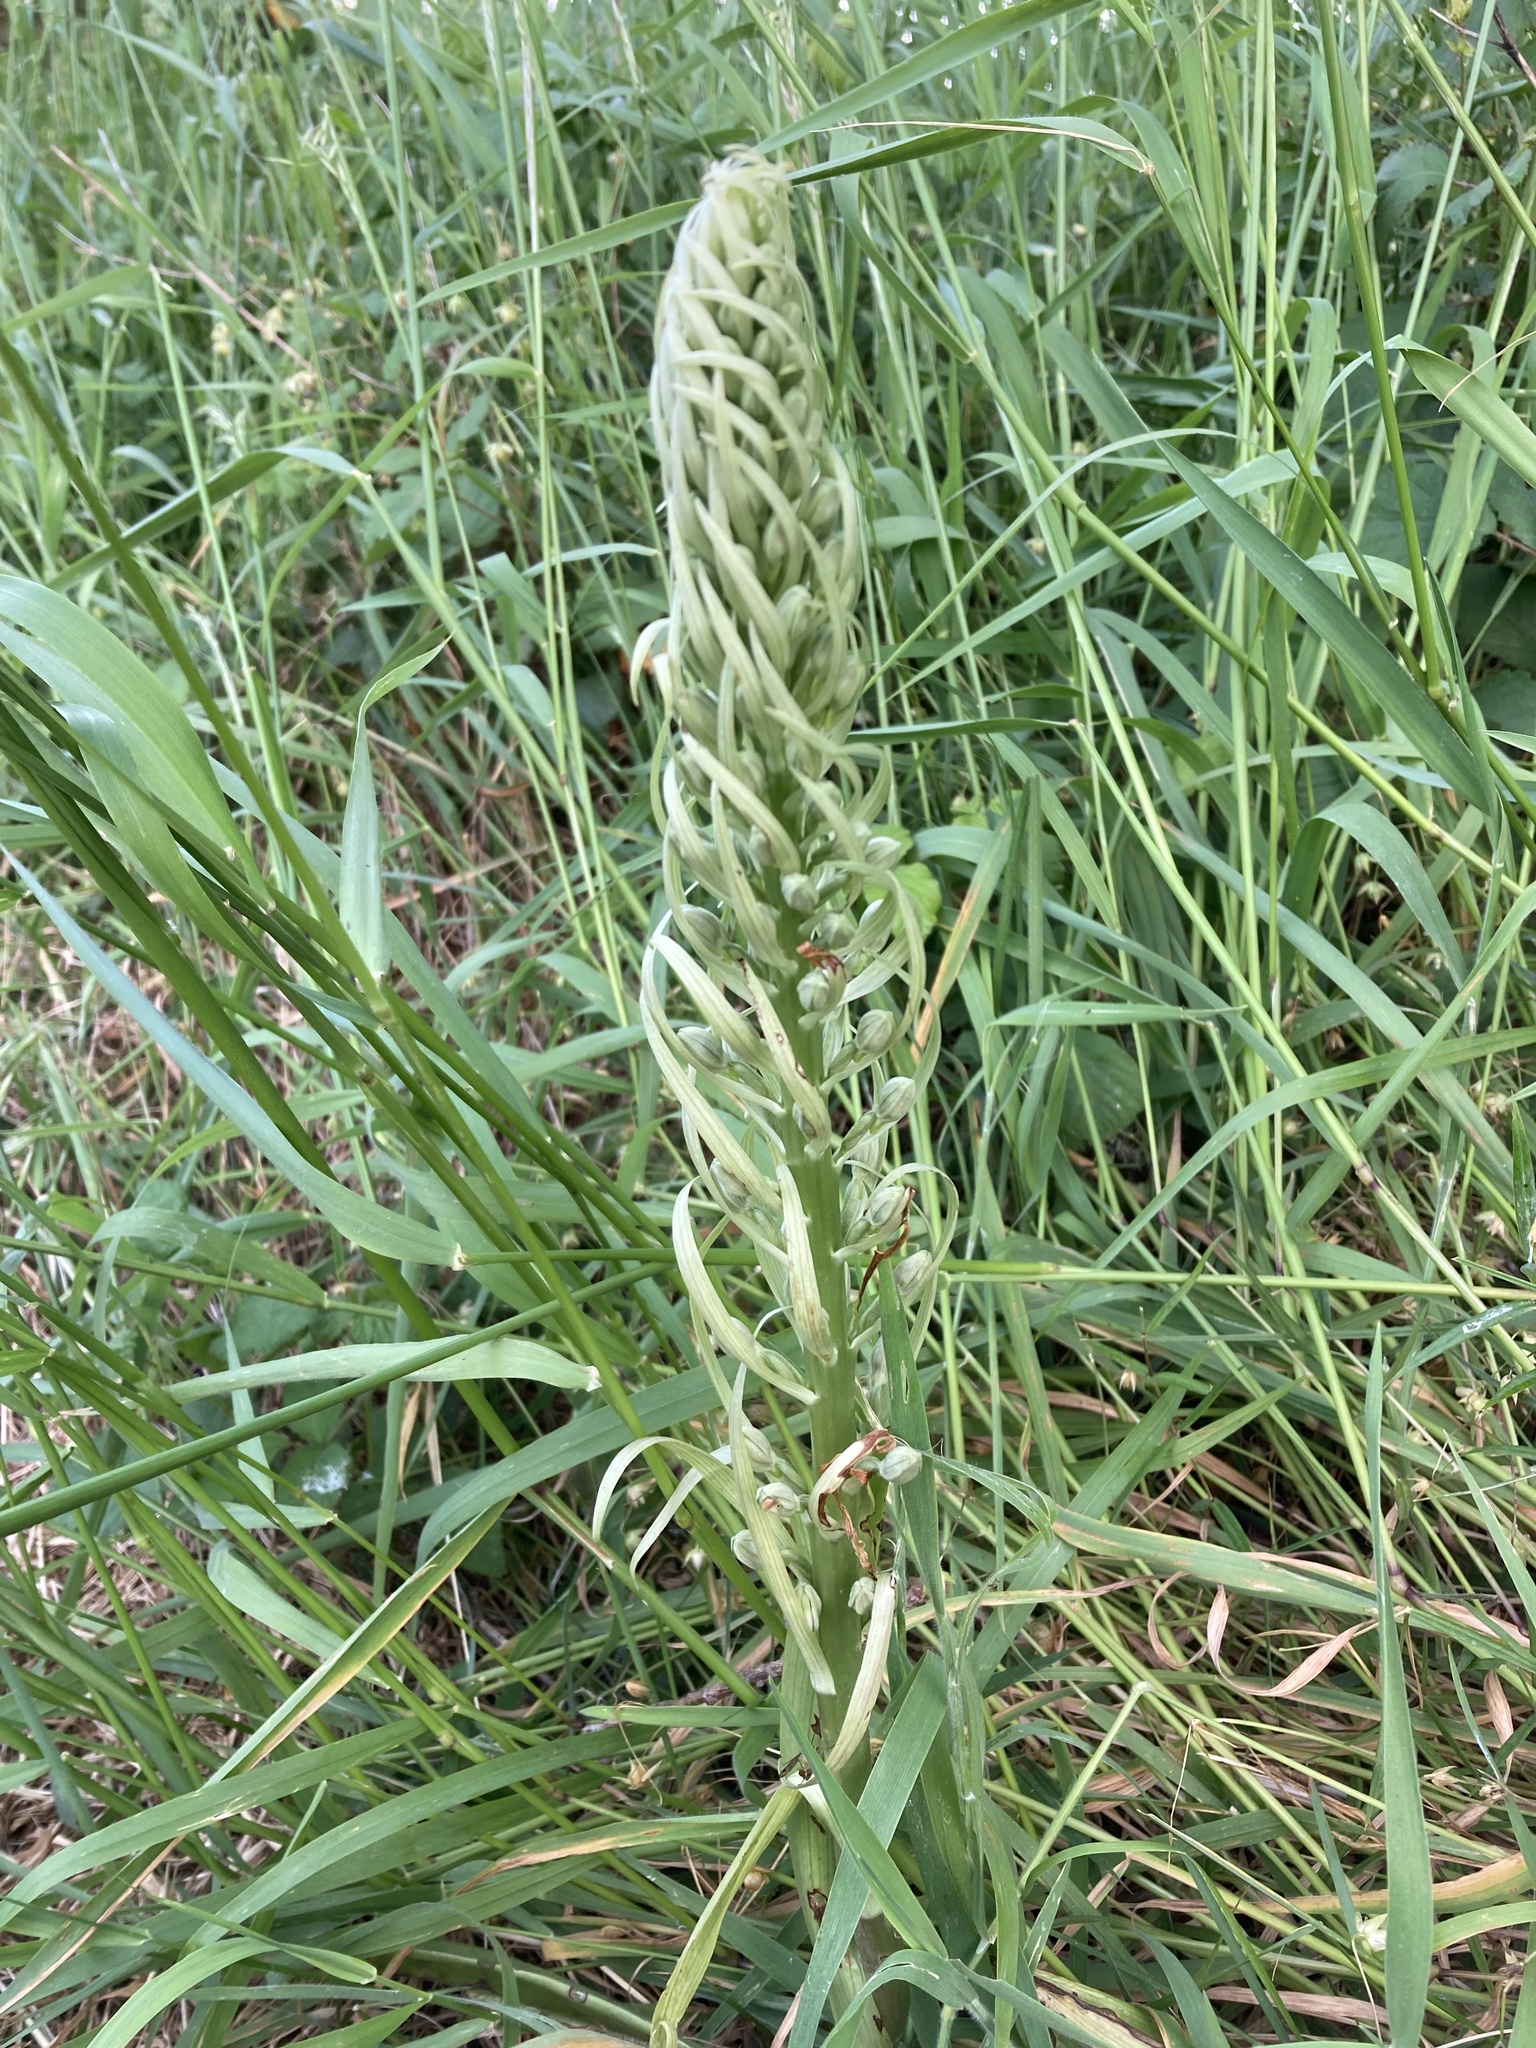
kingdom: Plantae
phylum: Tracheophyta
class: Liliopsida
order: Asparagales
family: Orchidaceae
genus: Himantoglossum
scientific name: Himantoglossum hircinum
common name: Lizard orchid
